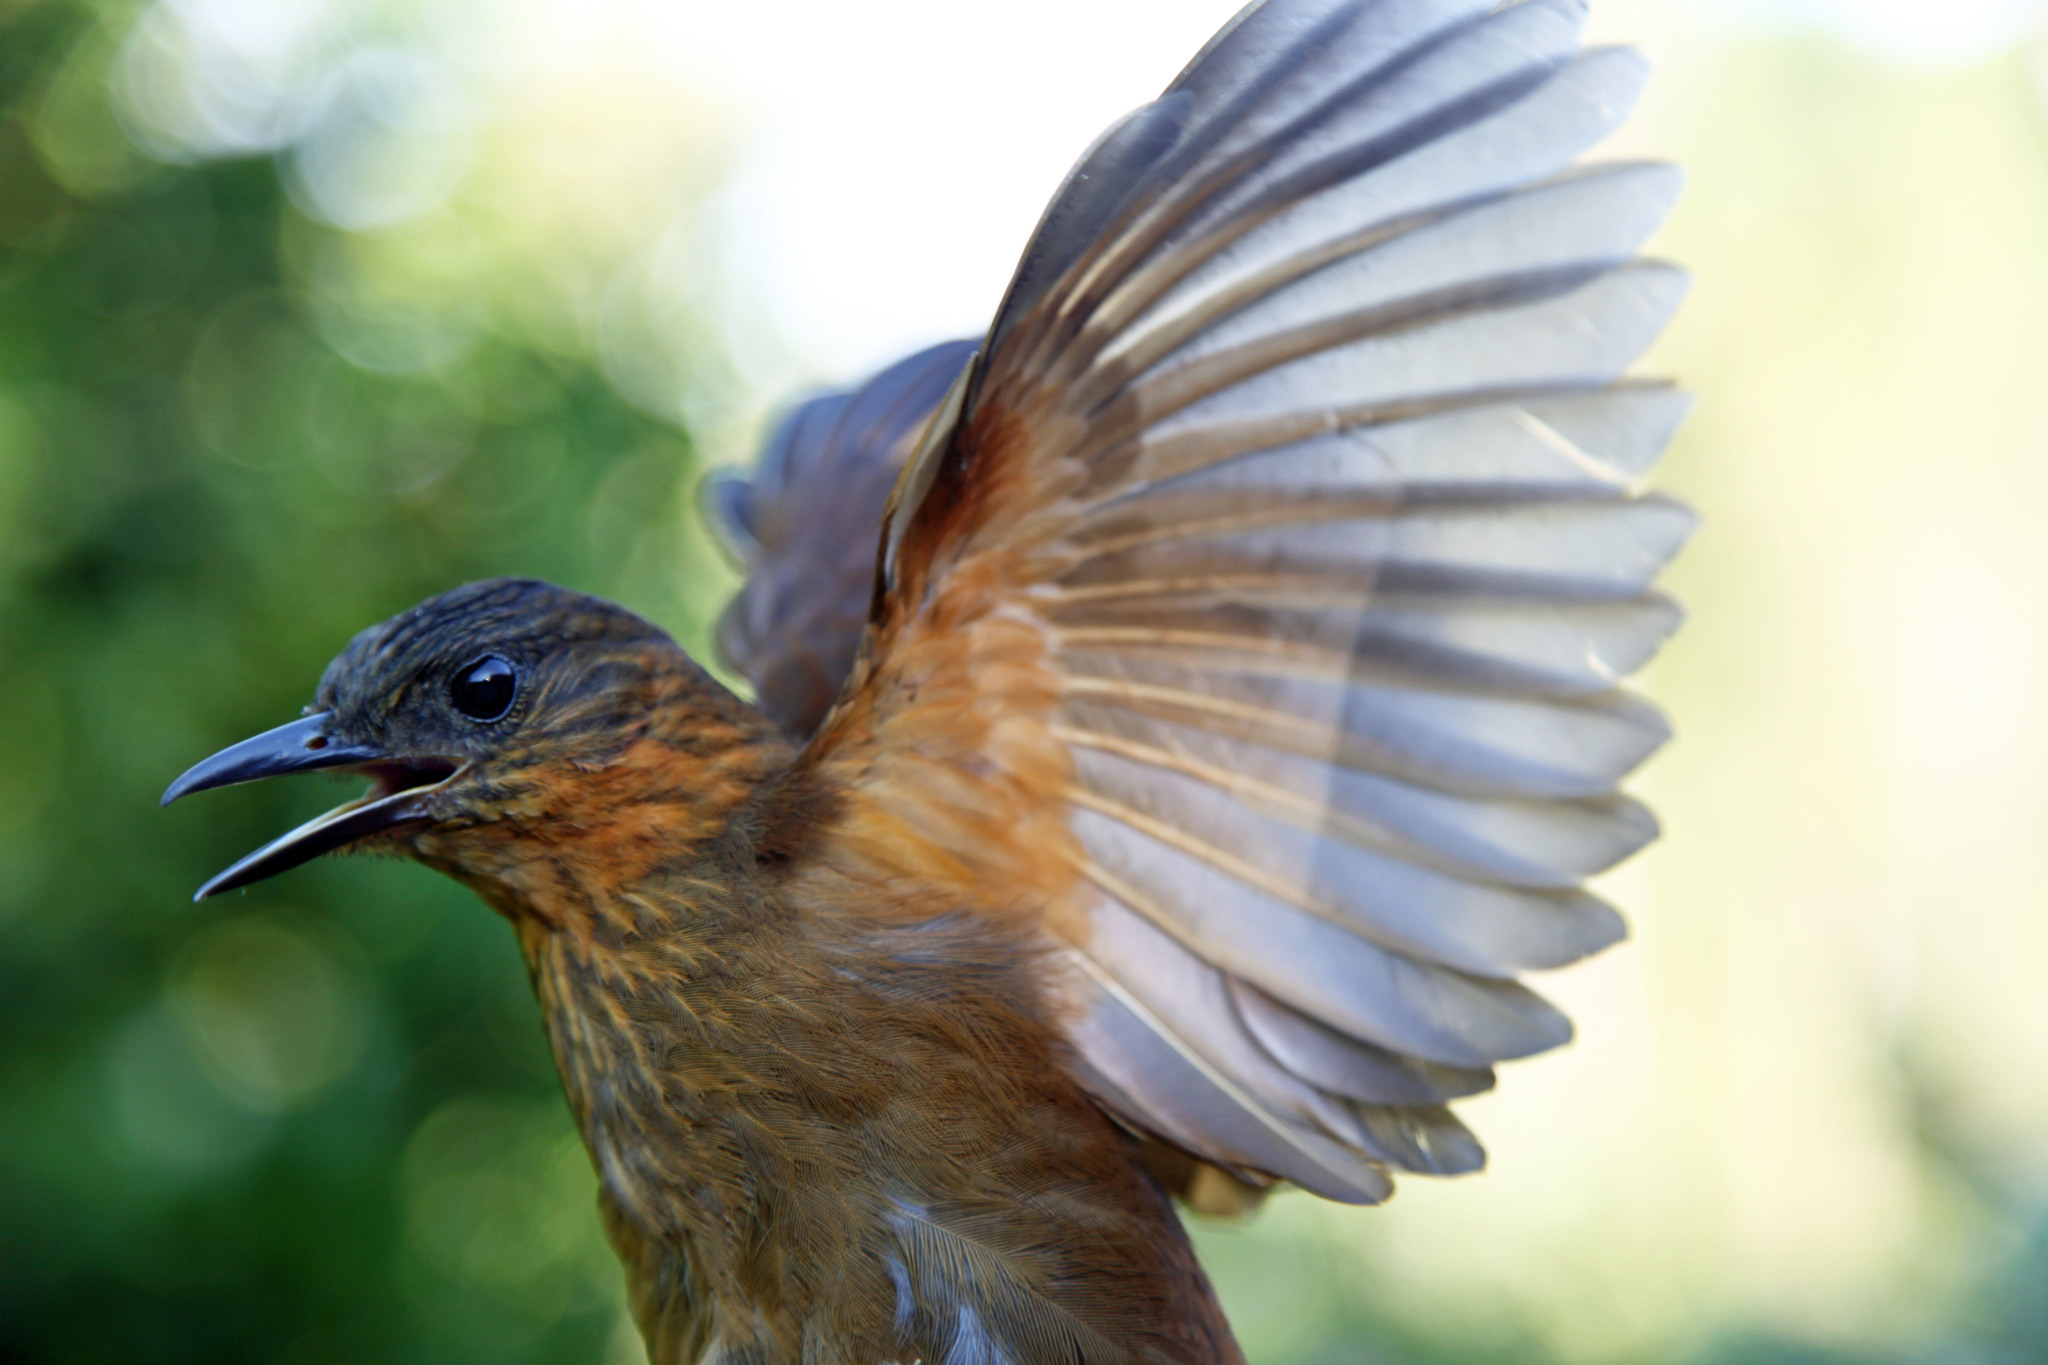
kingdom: Animalia
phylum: Chordata
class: Aves
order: Passeriformes
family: Furnariidae
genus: Thripadectes
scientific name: Thripadectes rufobrunneus
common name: Streak-breasted treehunter
